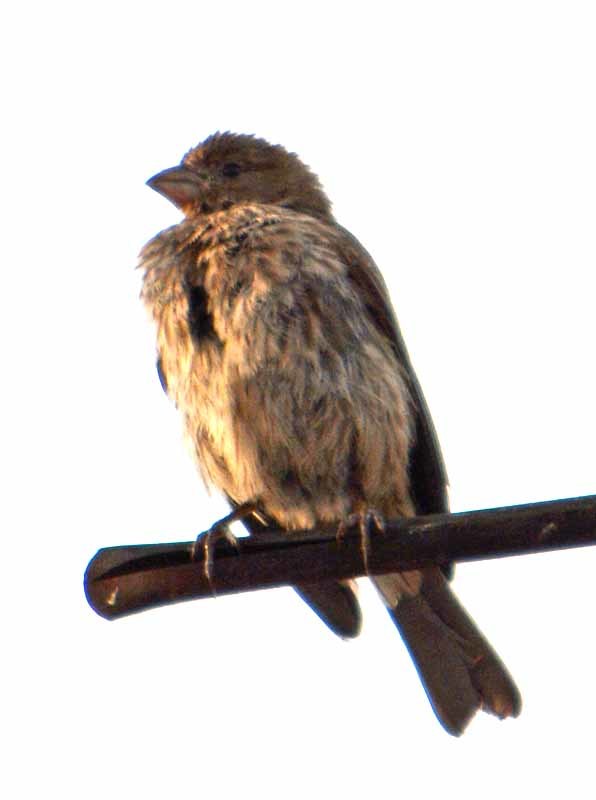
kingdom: Animalia
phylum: Chordata
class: Aves
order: Passeriformes
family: Fringillidae
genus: Haemorhous
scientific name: Haemorhous mexicanus
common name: House finch
